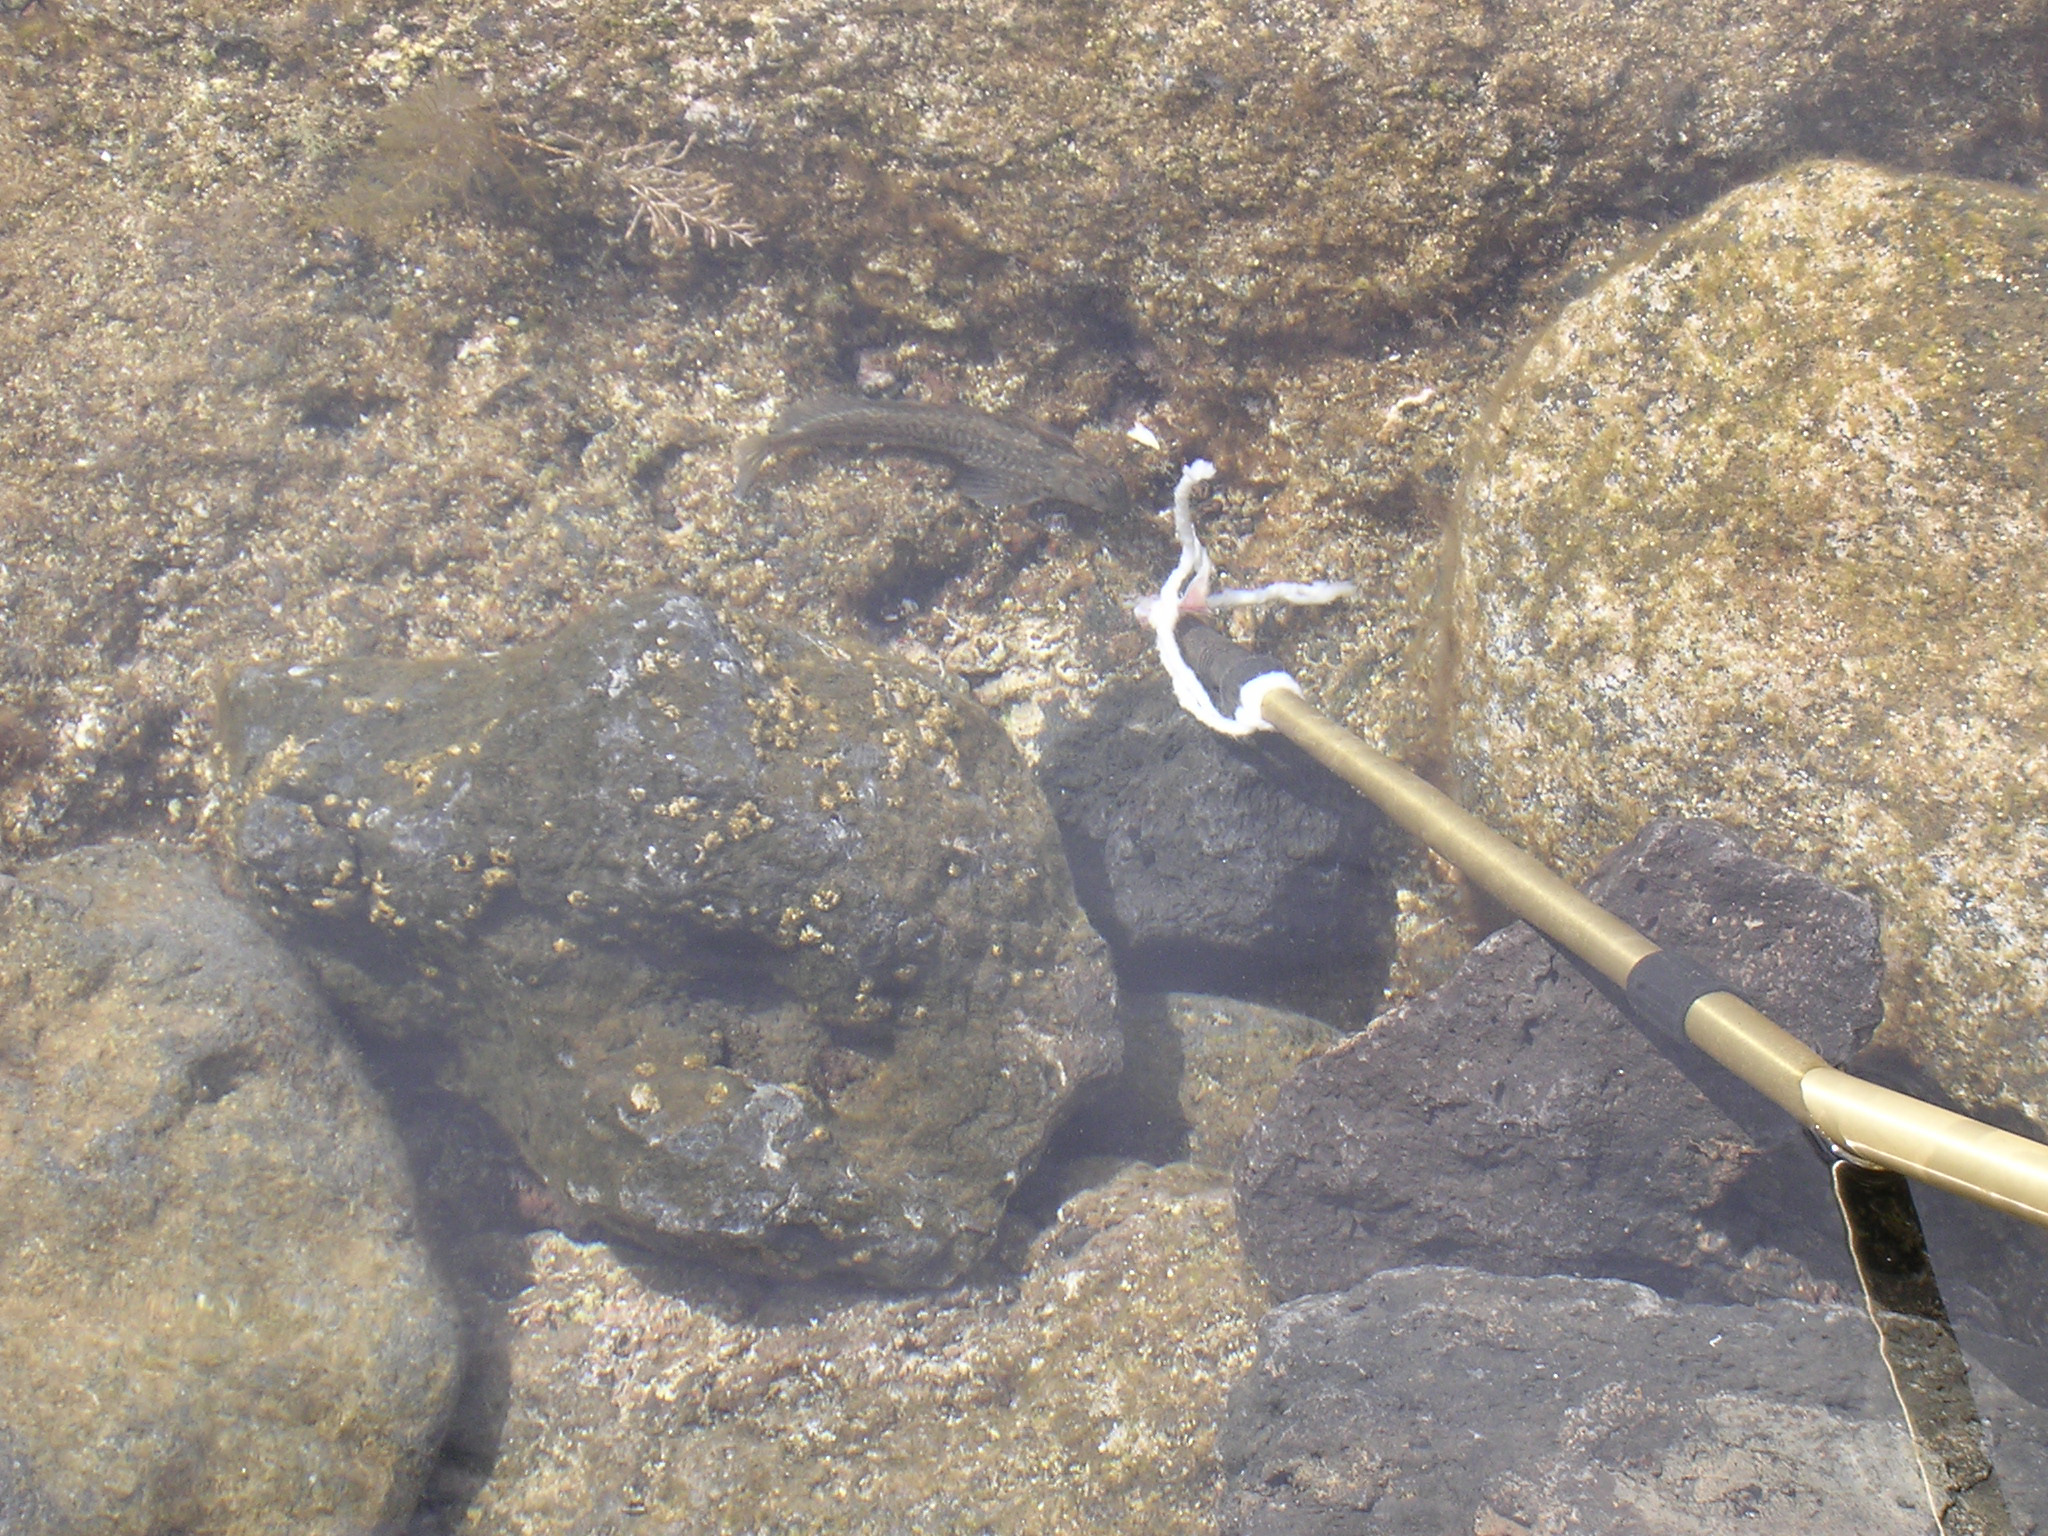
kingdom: Animalia
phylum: Chordata
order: Perciformes
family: Blenniidae
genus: Parablennius
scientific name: Parablennius parvicornis
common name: Rock-pool blenny
